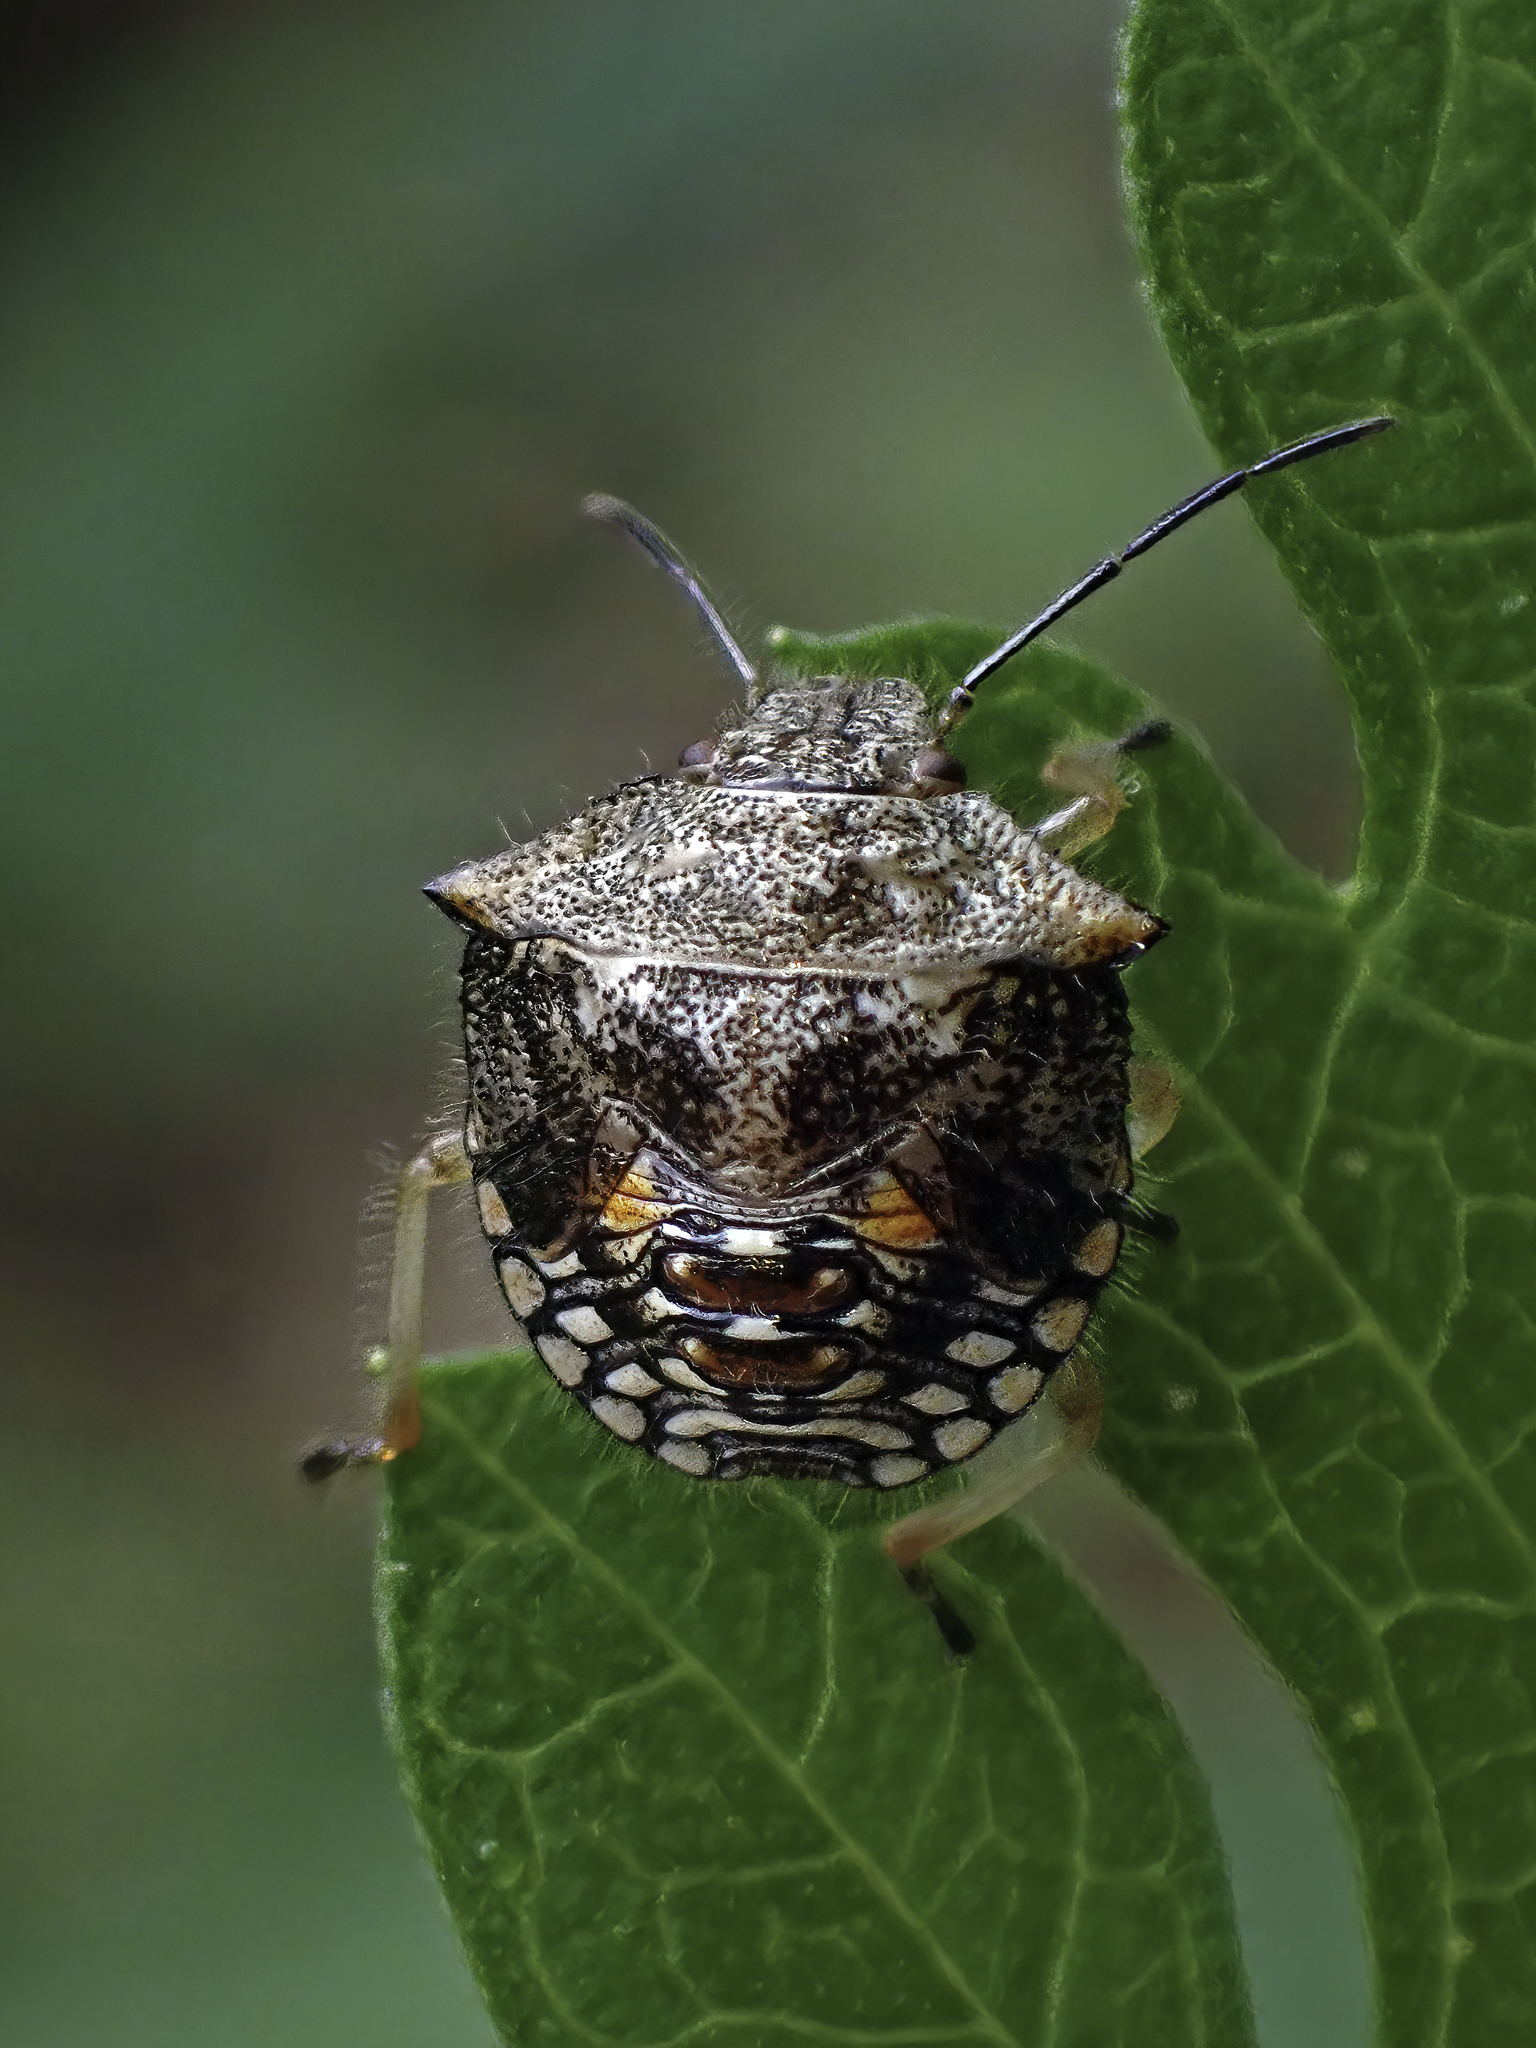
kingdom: Animalia
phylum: Arthropoda
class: Insecta
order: Hemiptera
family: Pentatomidae
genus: Thyanta
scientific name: Thyanta perditor
